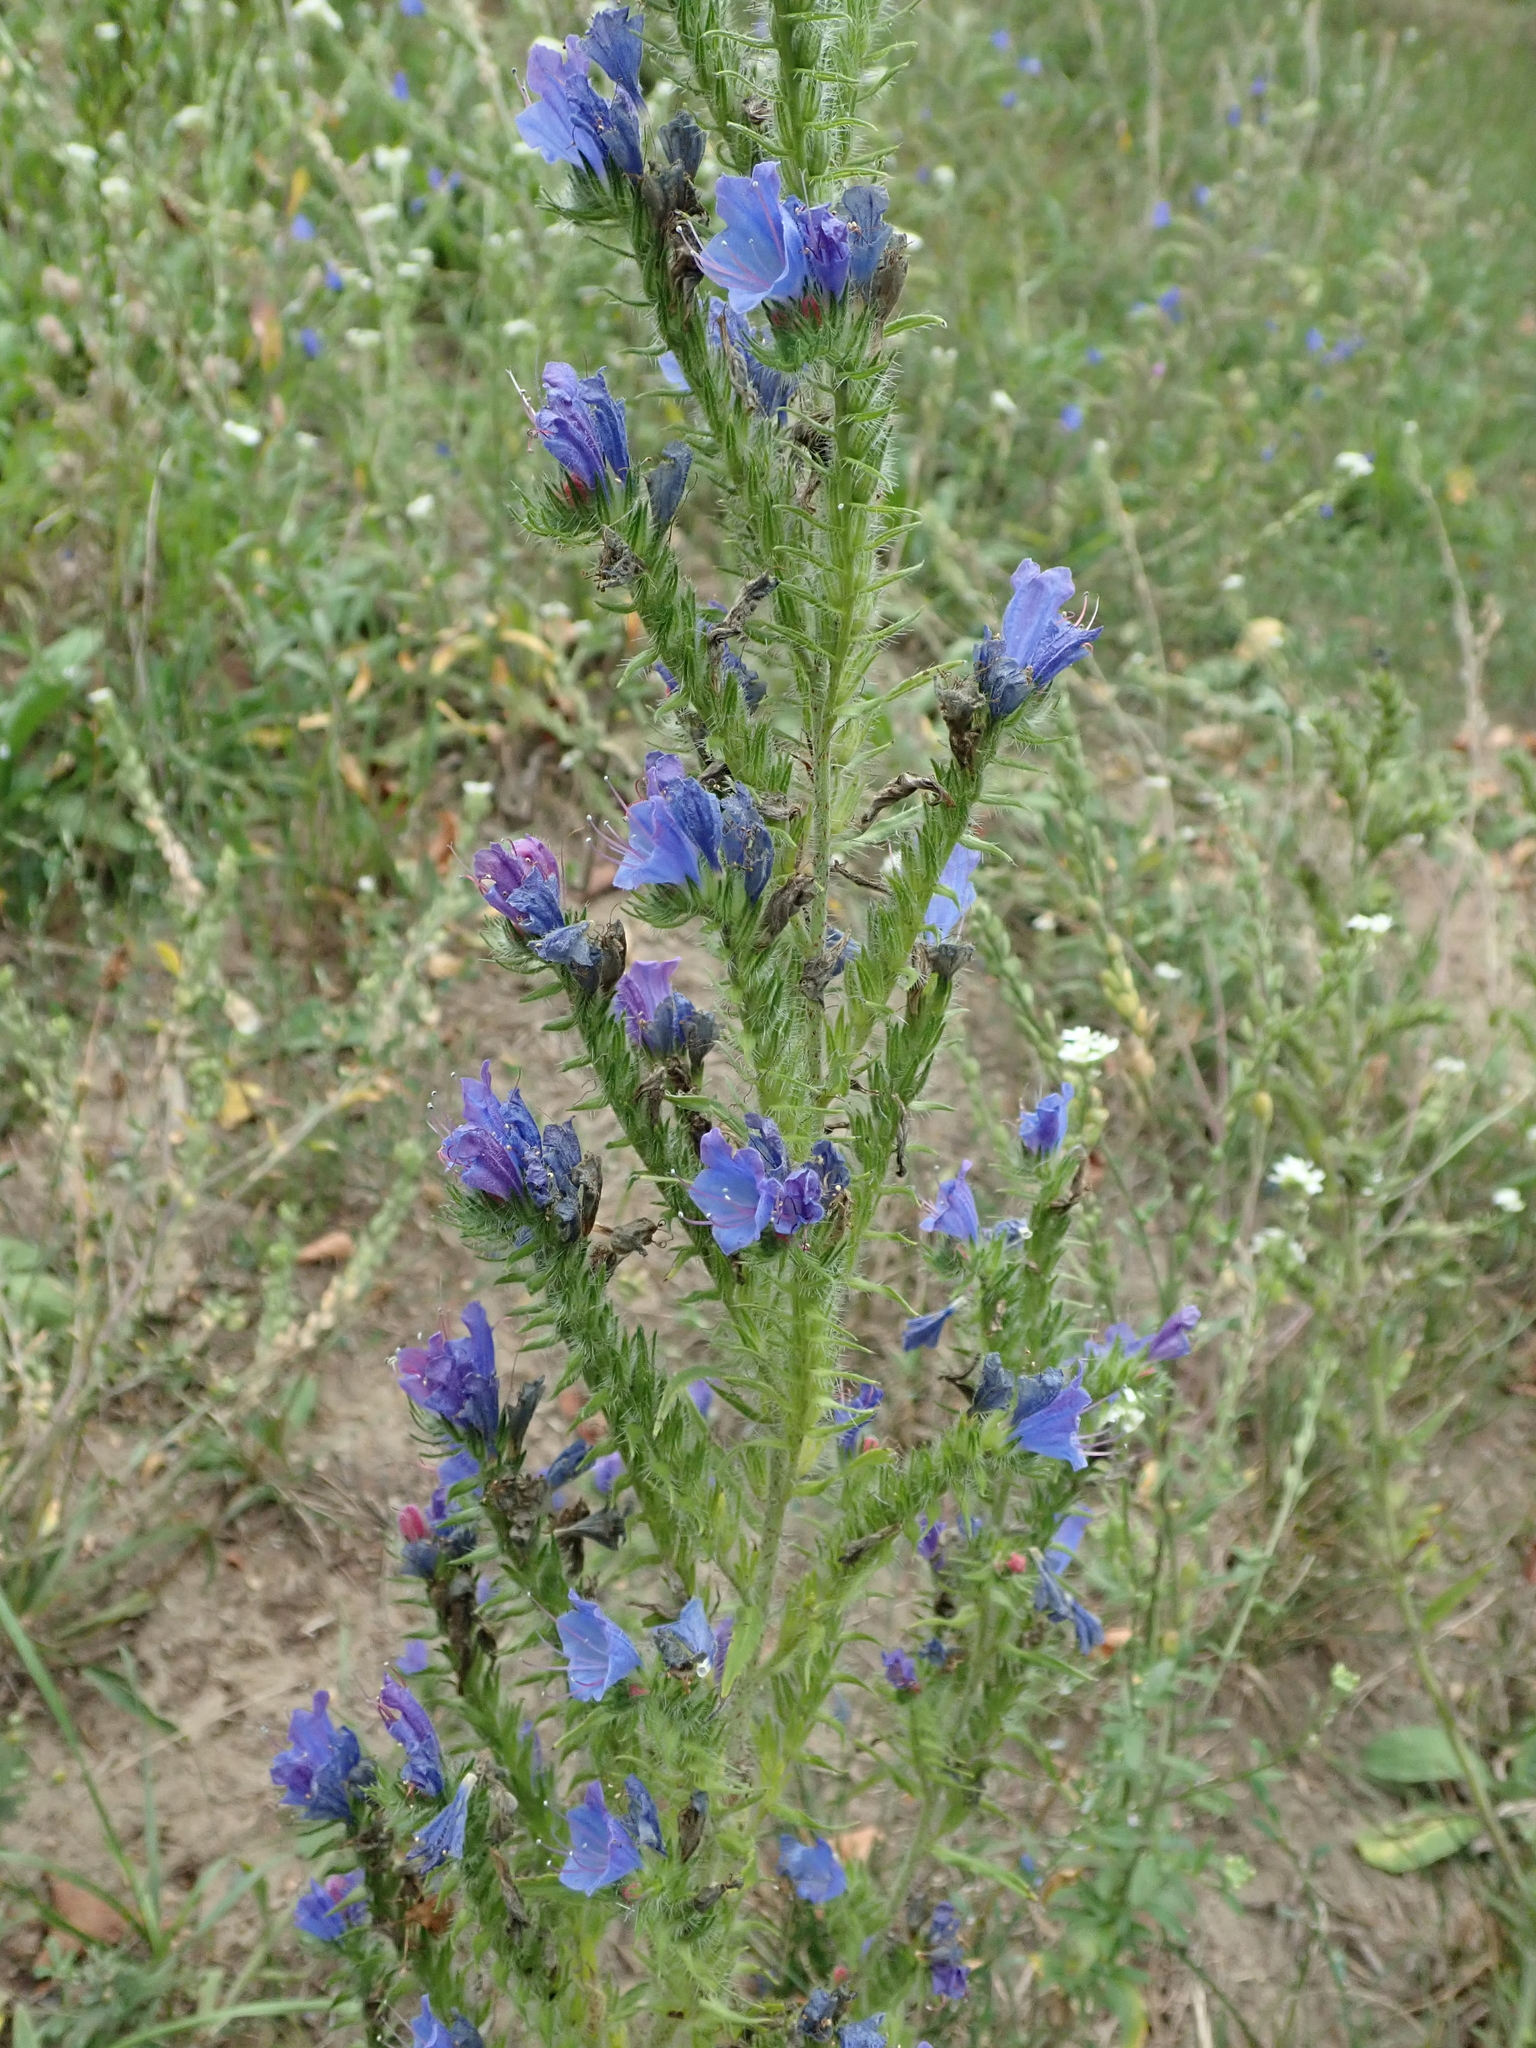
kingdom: Plantae
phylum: Tracheophyta
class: Magnoliopsida
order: Boraginales
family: Boraginaceae
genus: Echium
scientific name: Echium vulgare
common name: Common viper's bugloss
